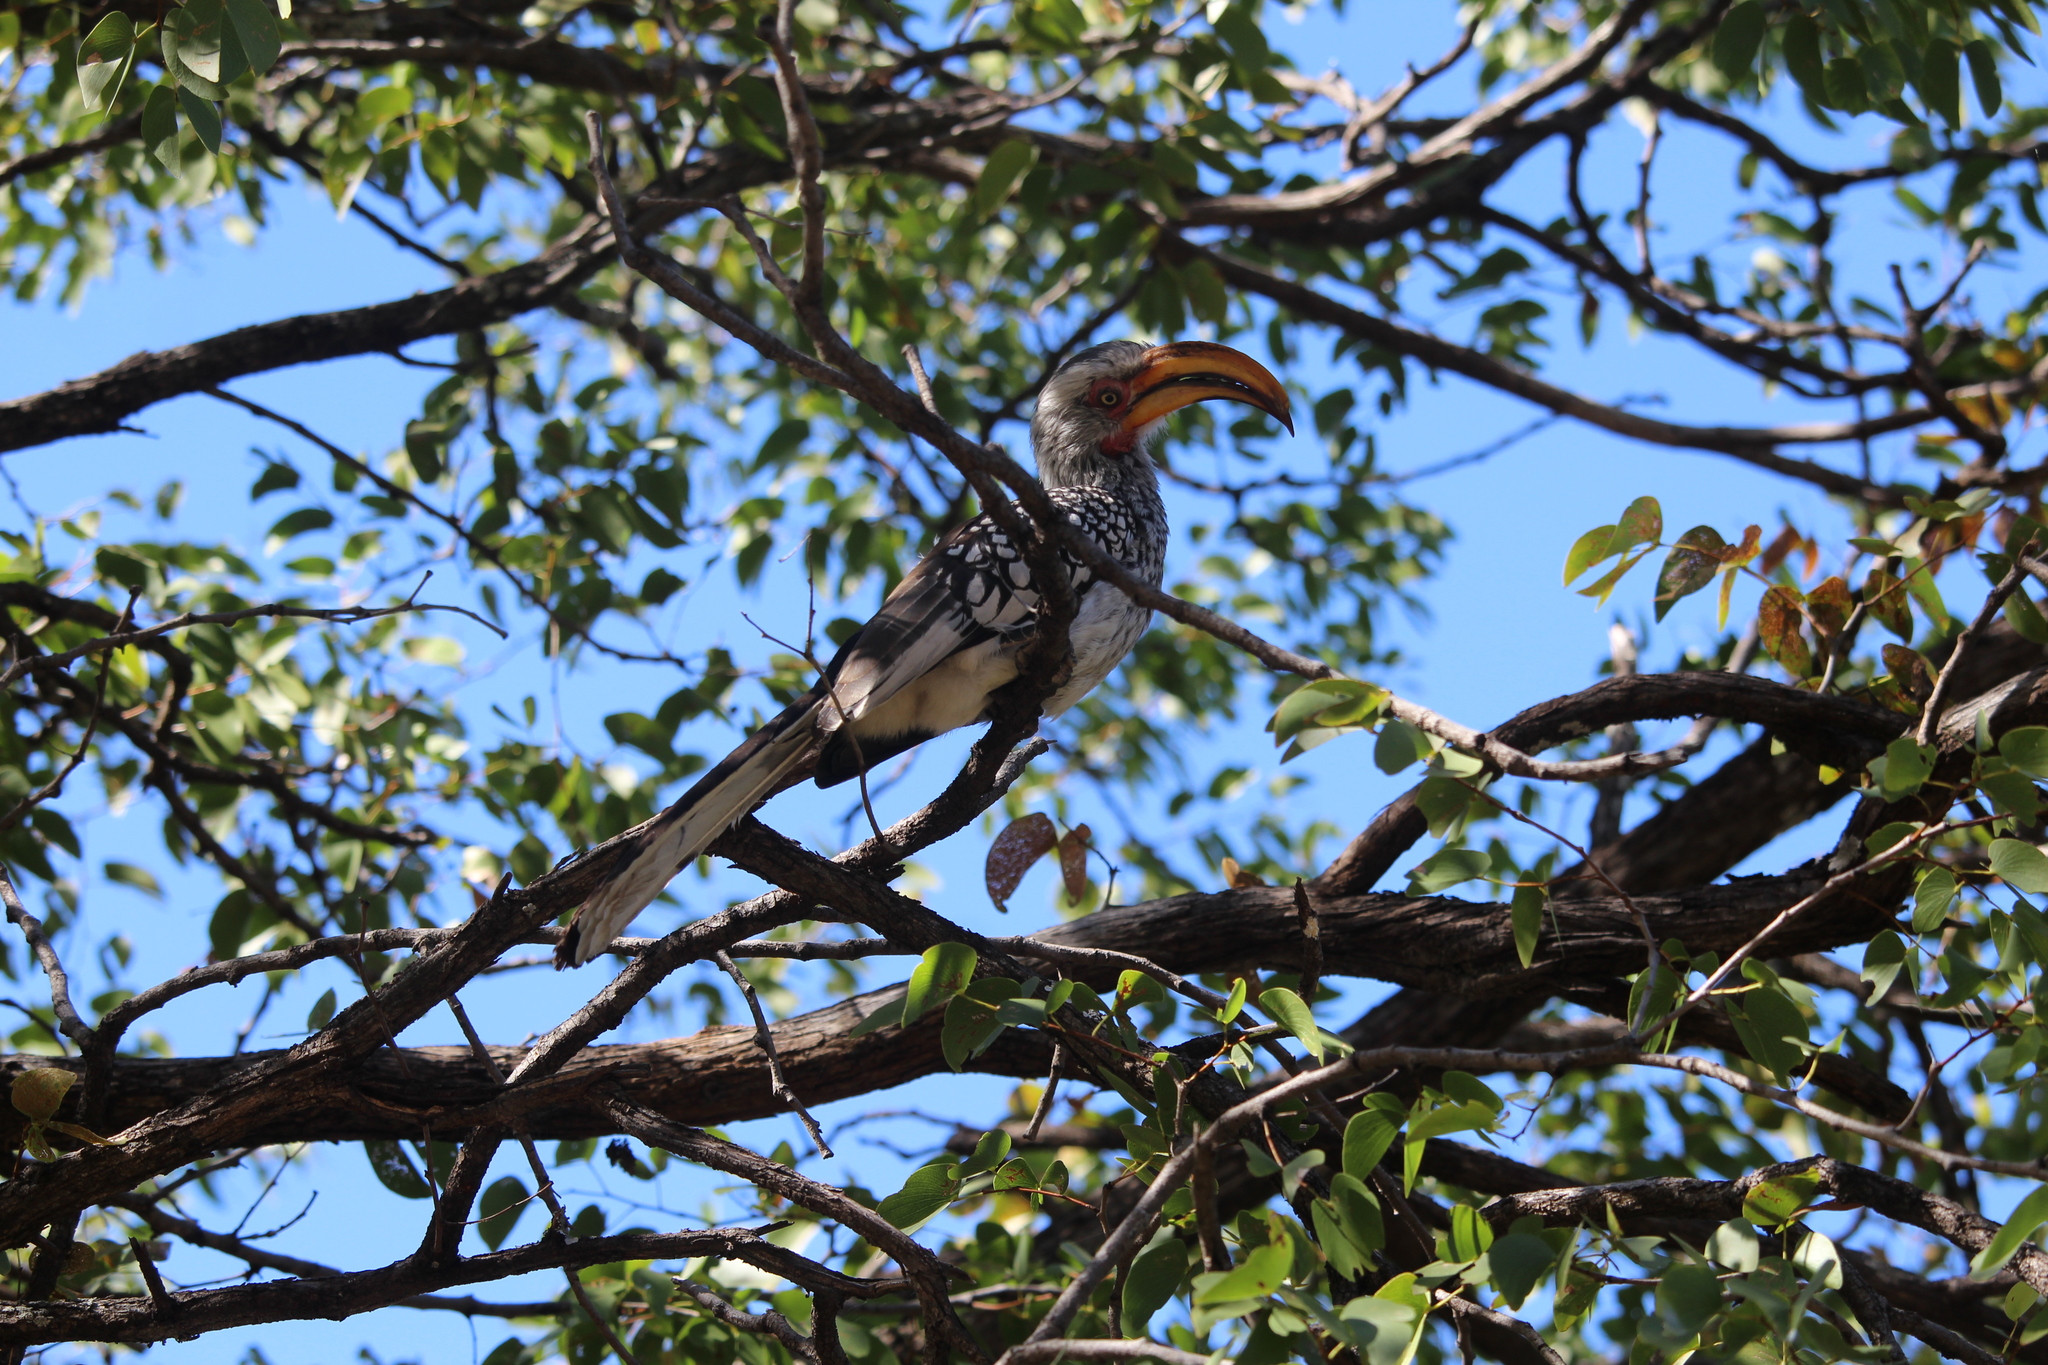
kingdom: Animalia
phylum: Chordata
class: Aves
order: Bucerotiformes
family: Bucerotidae
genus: Tockus
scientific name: Tockus leucomelas
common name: Southern yellow-billed hornbill
